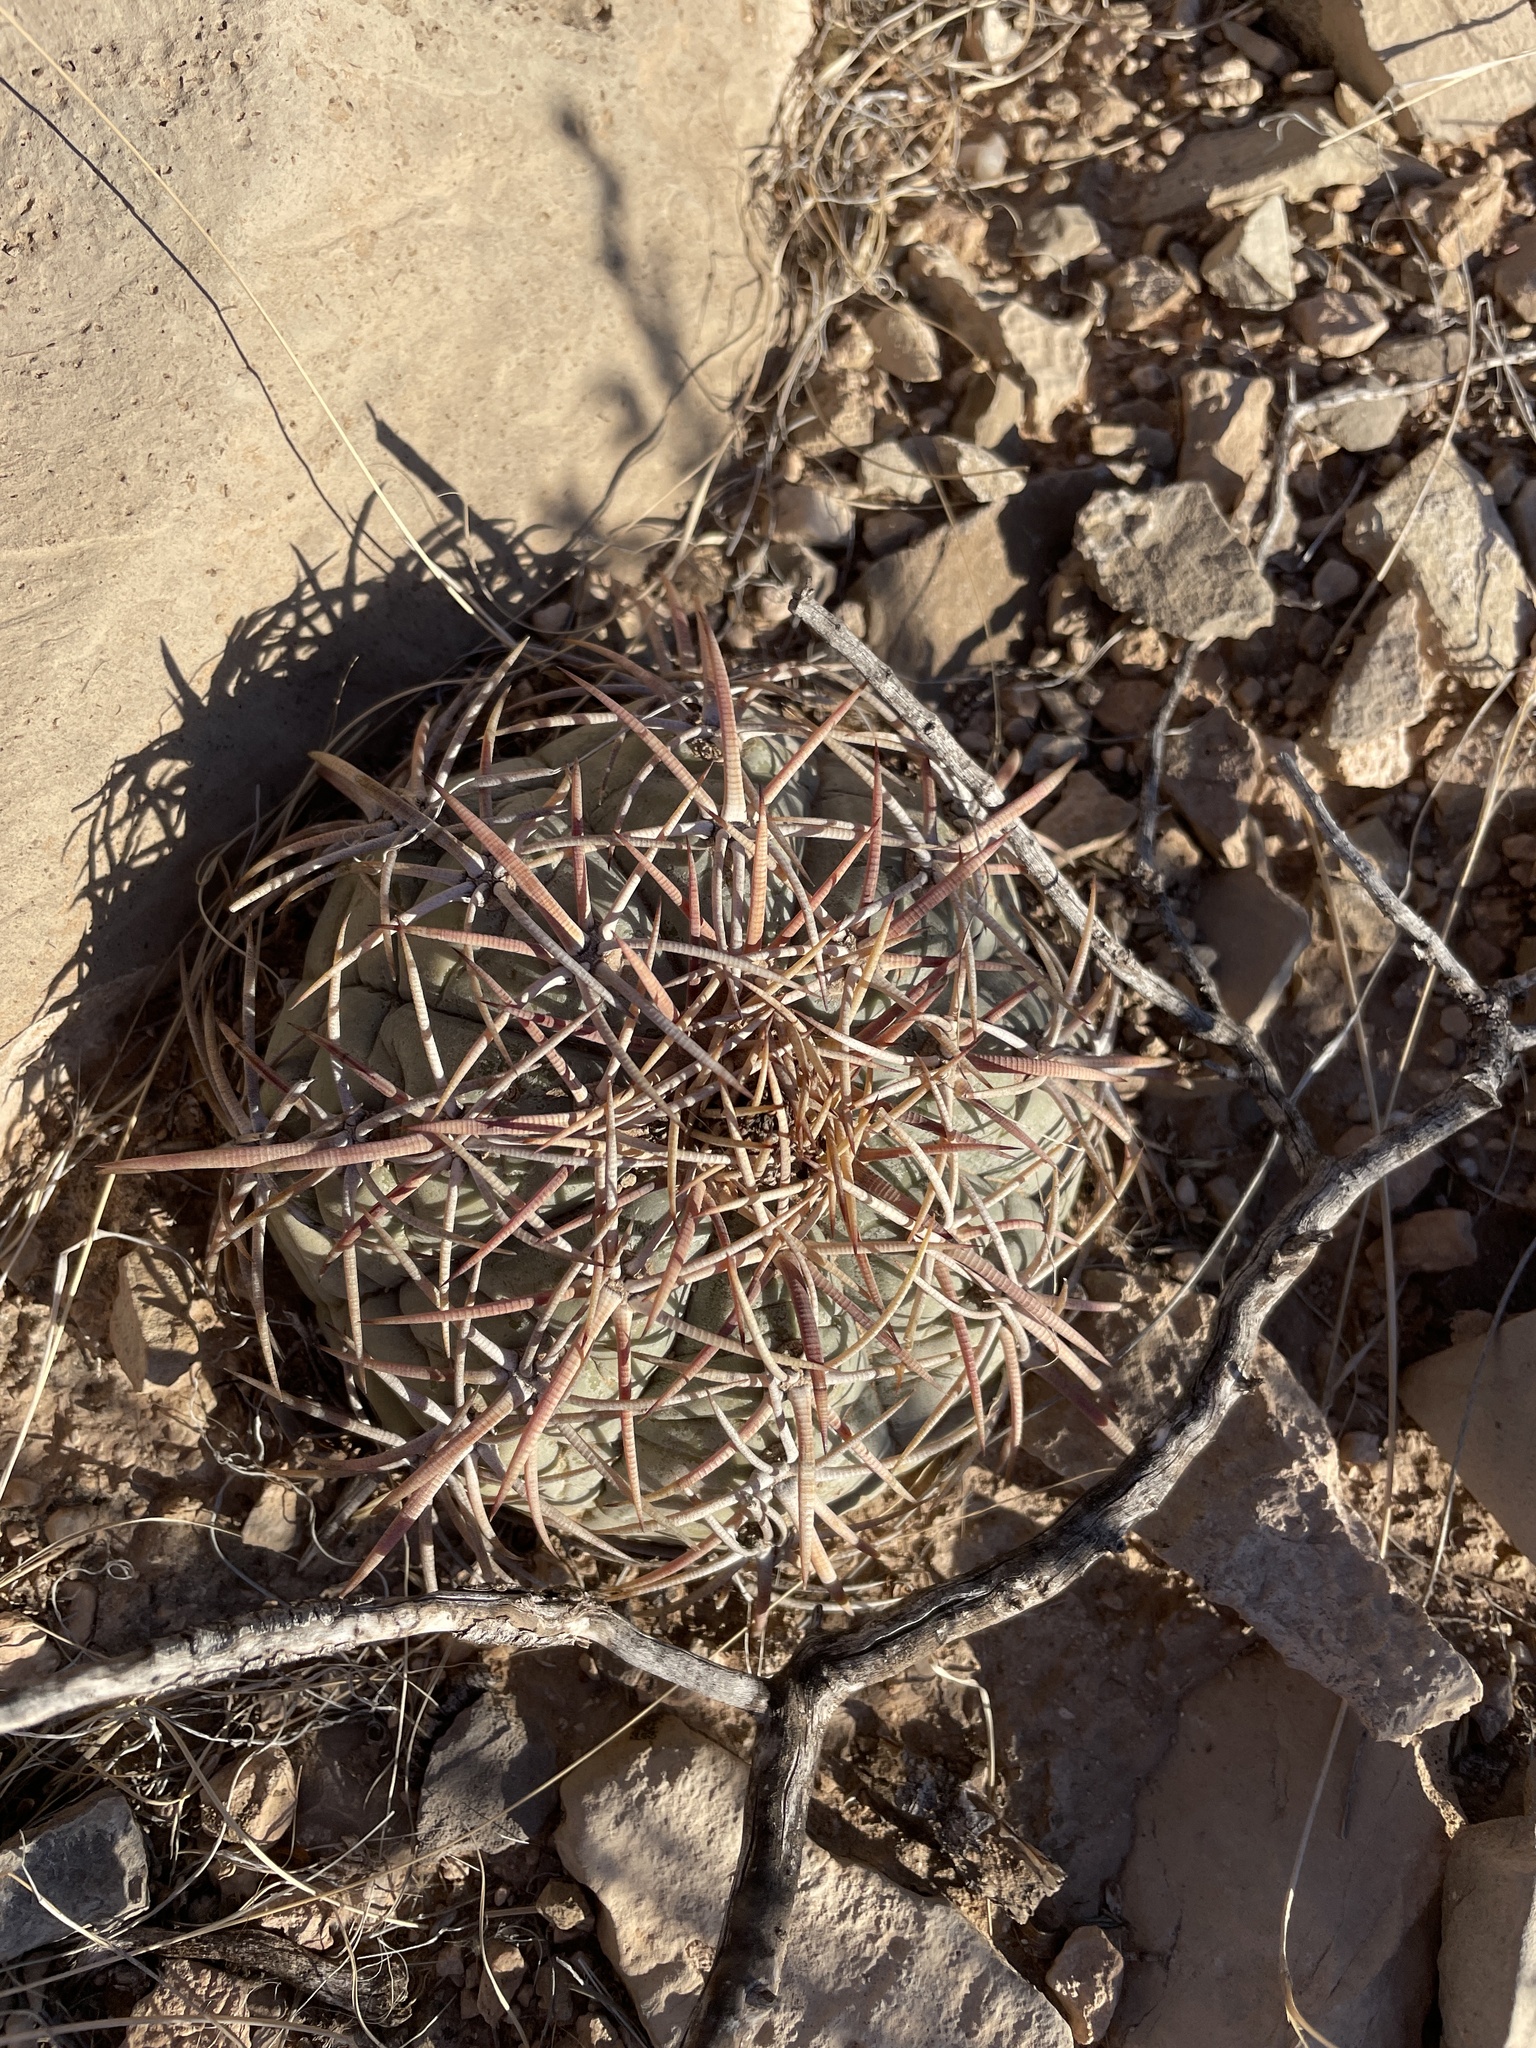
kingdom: Plantae
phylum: Tracheophyta
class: Magnoliopsida
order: Caryophyllales
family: Cactaceae
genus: Echinocactus
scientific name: Echinocactus horizonthalonius
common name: Devilshead
